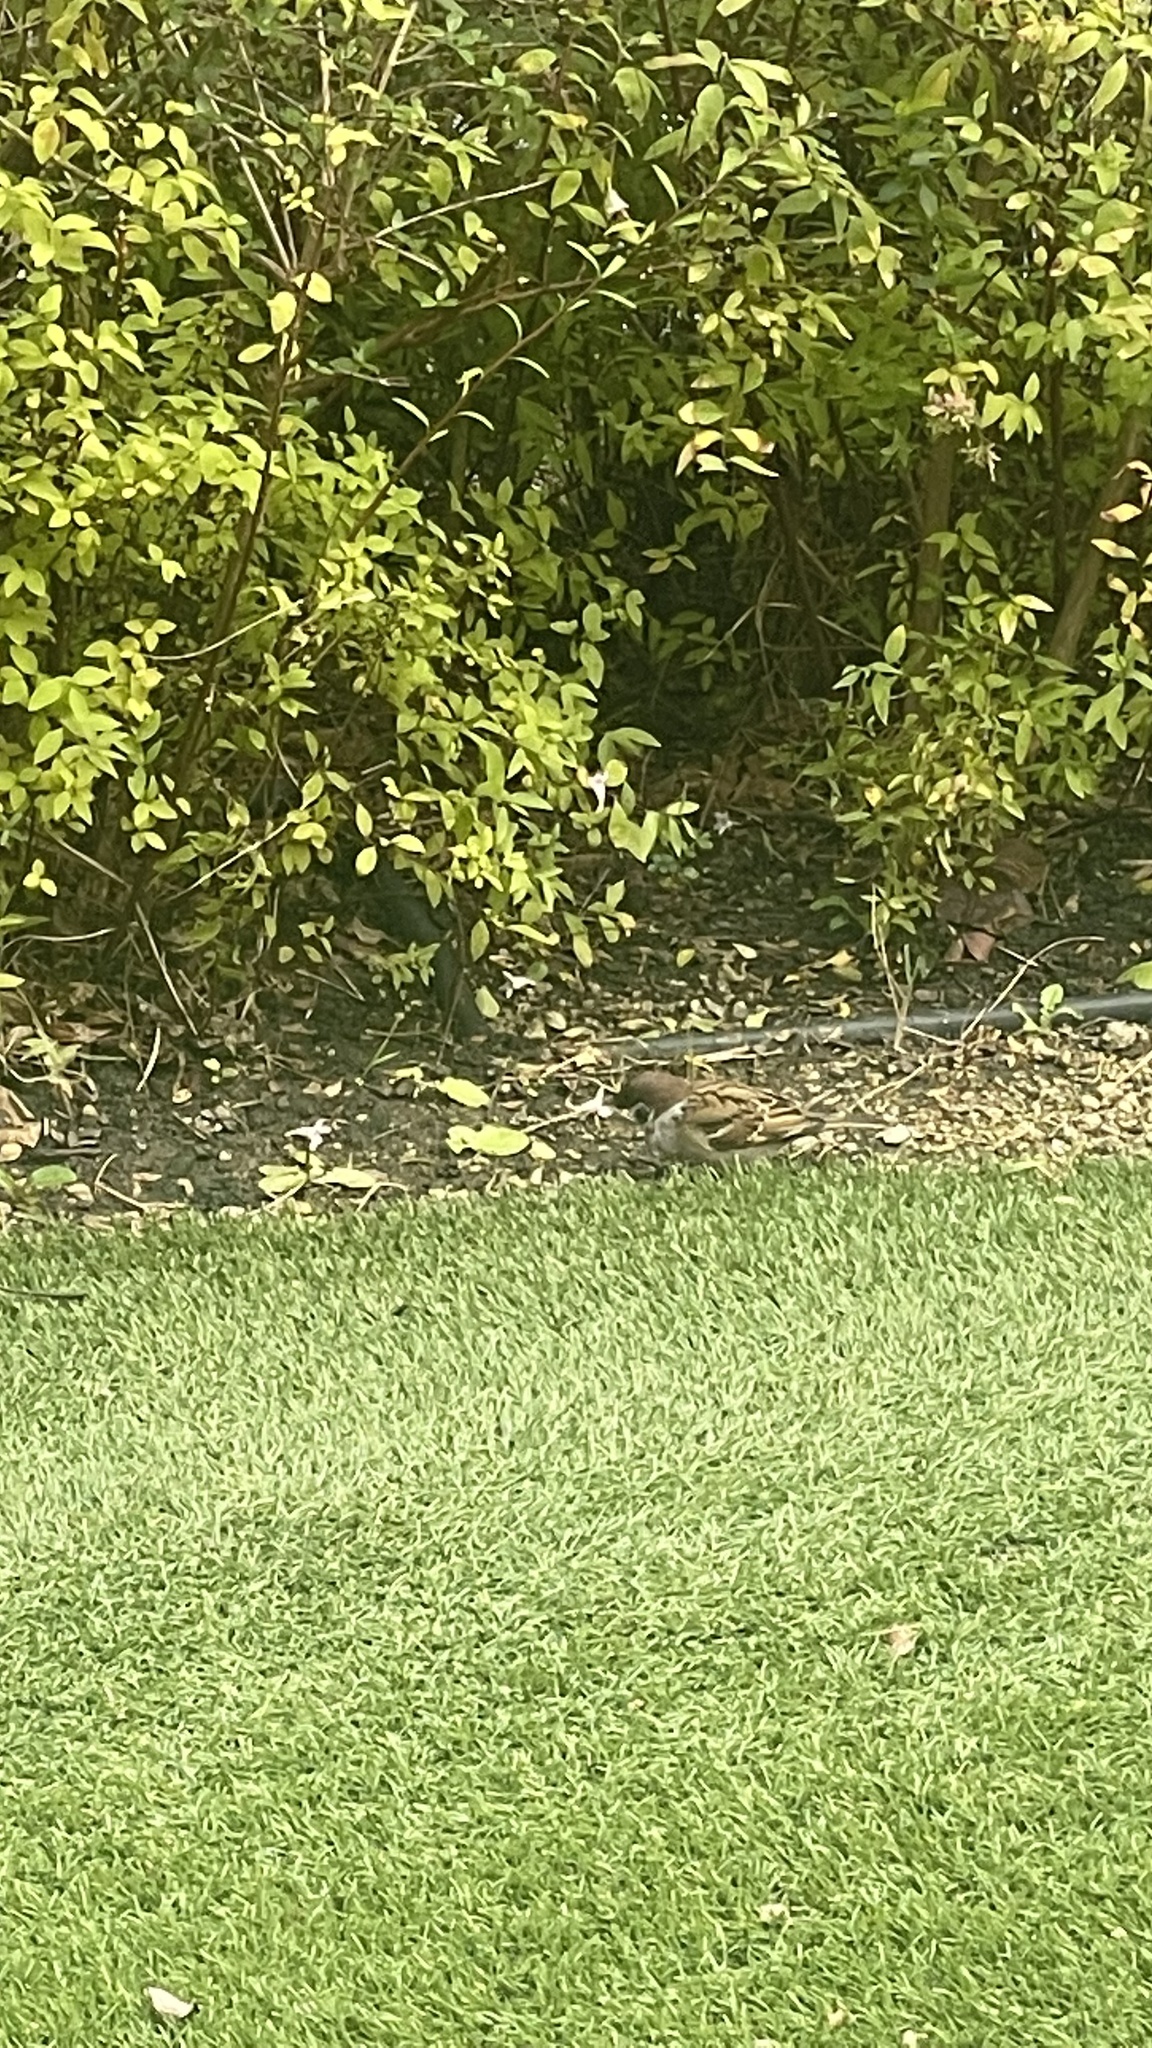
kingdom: Animalia
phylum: Chordata
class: Aves
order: Passeriformes
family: Passeridae
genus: Passer
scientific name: Passer montanus
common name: Eurasian tree sparrow
